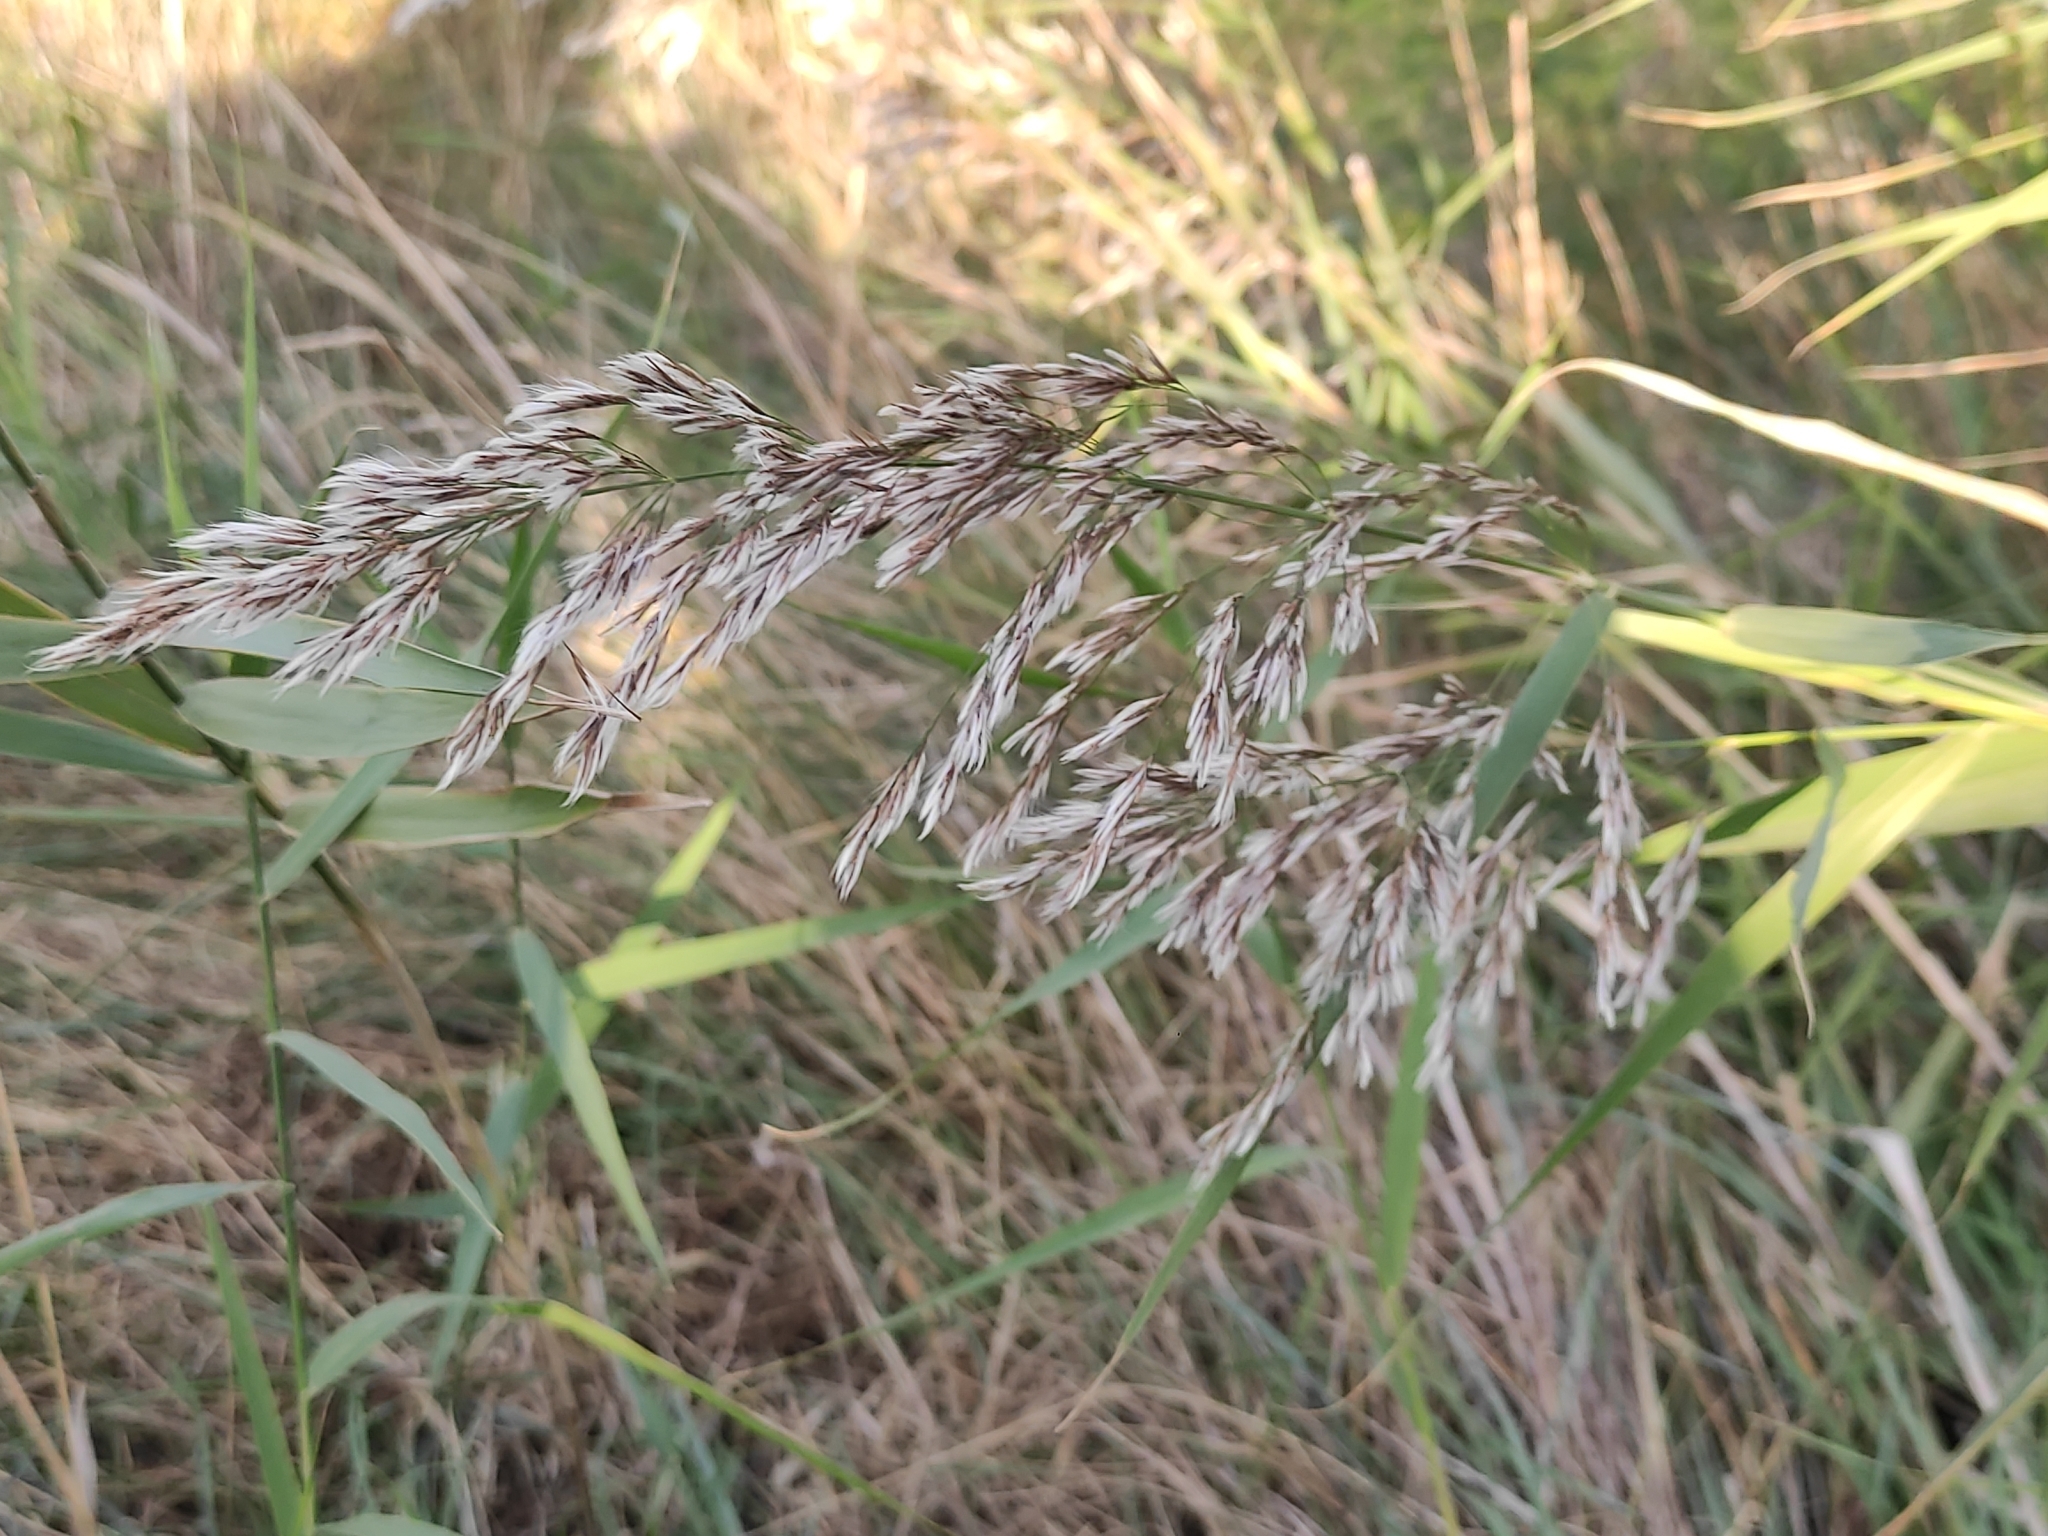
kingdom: Plantae
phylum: Tracheophyta
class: Liliopsida
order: Poales
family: Poaceae
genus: Phragmites
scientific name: Phragmites australis
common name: Common reed
